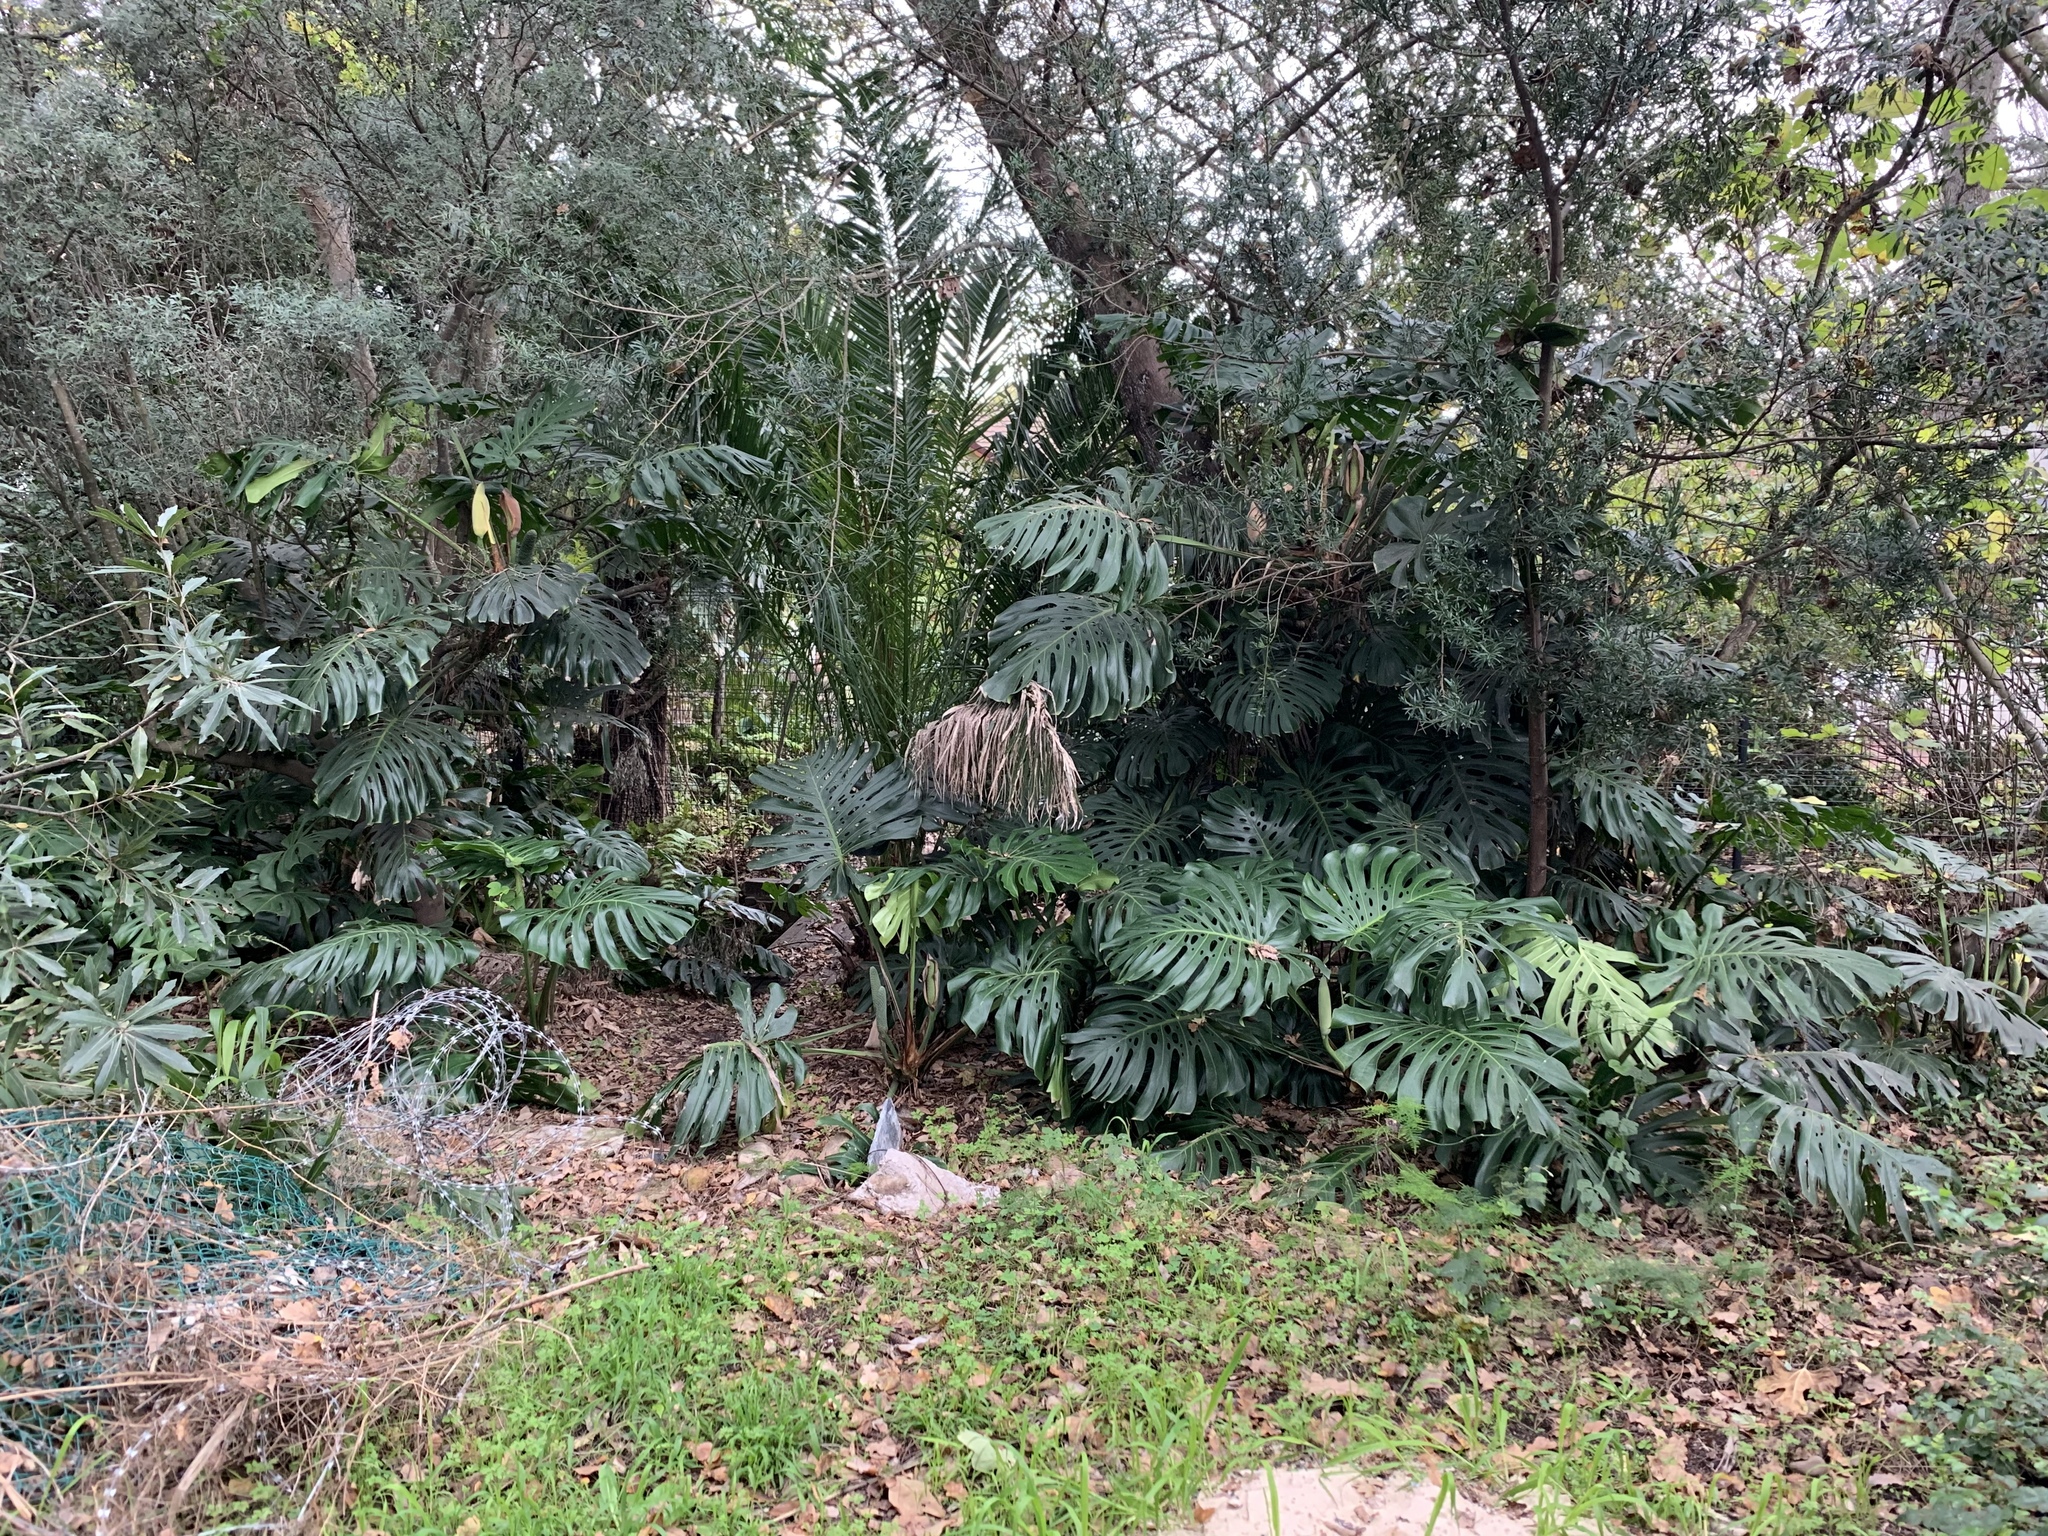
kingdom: Plantae
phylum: Tracheophyta
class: Liliopsida
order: Alismatales
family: Araceae
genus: Monstera
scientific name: Monstera deliciosa
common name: Cut-leaf-philodendron
